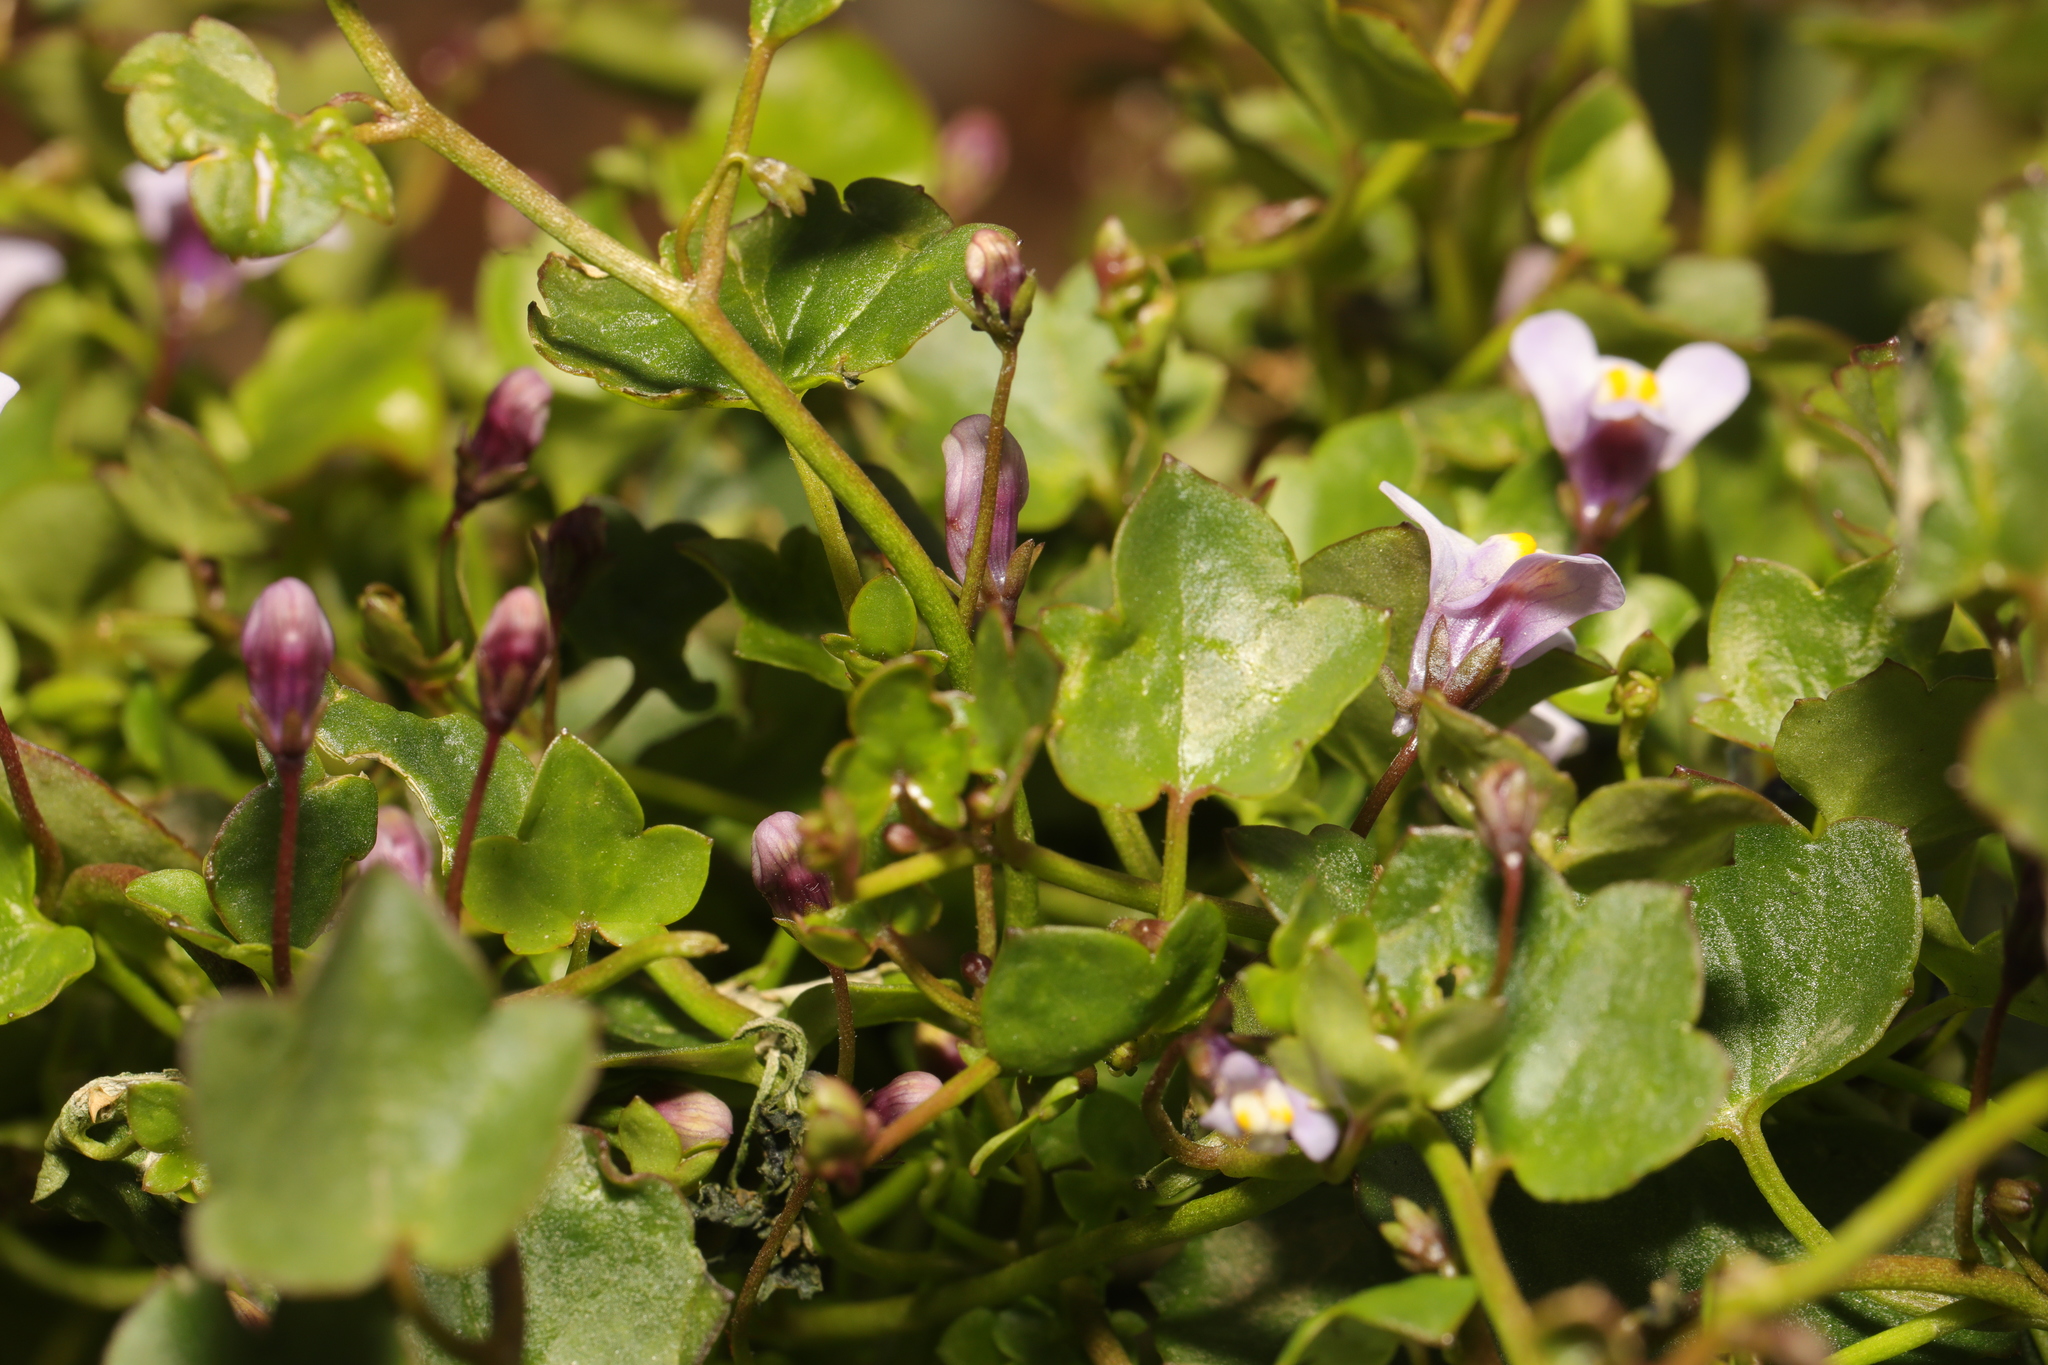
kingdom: Plantae
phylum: Tracheophyta
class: Magnoliopsida
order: Lamiales
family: Plantaginaceae
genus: Cymbalaria
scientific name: Cymbalaria muralis
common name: Ivy-leaved toadflax
